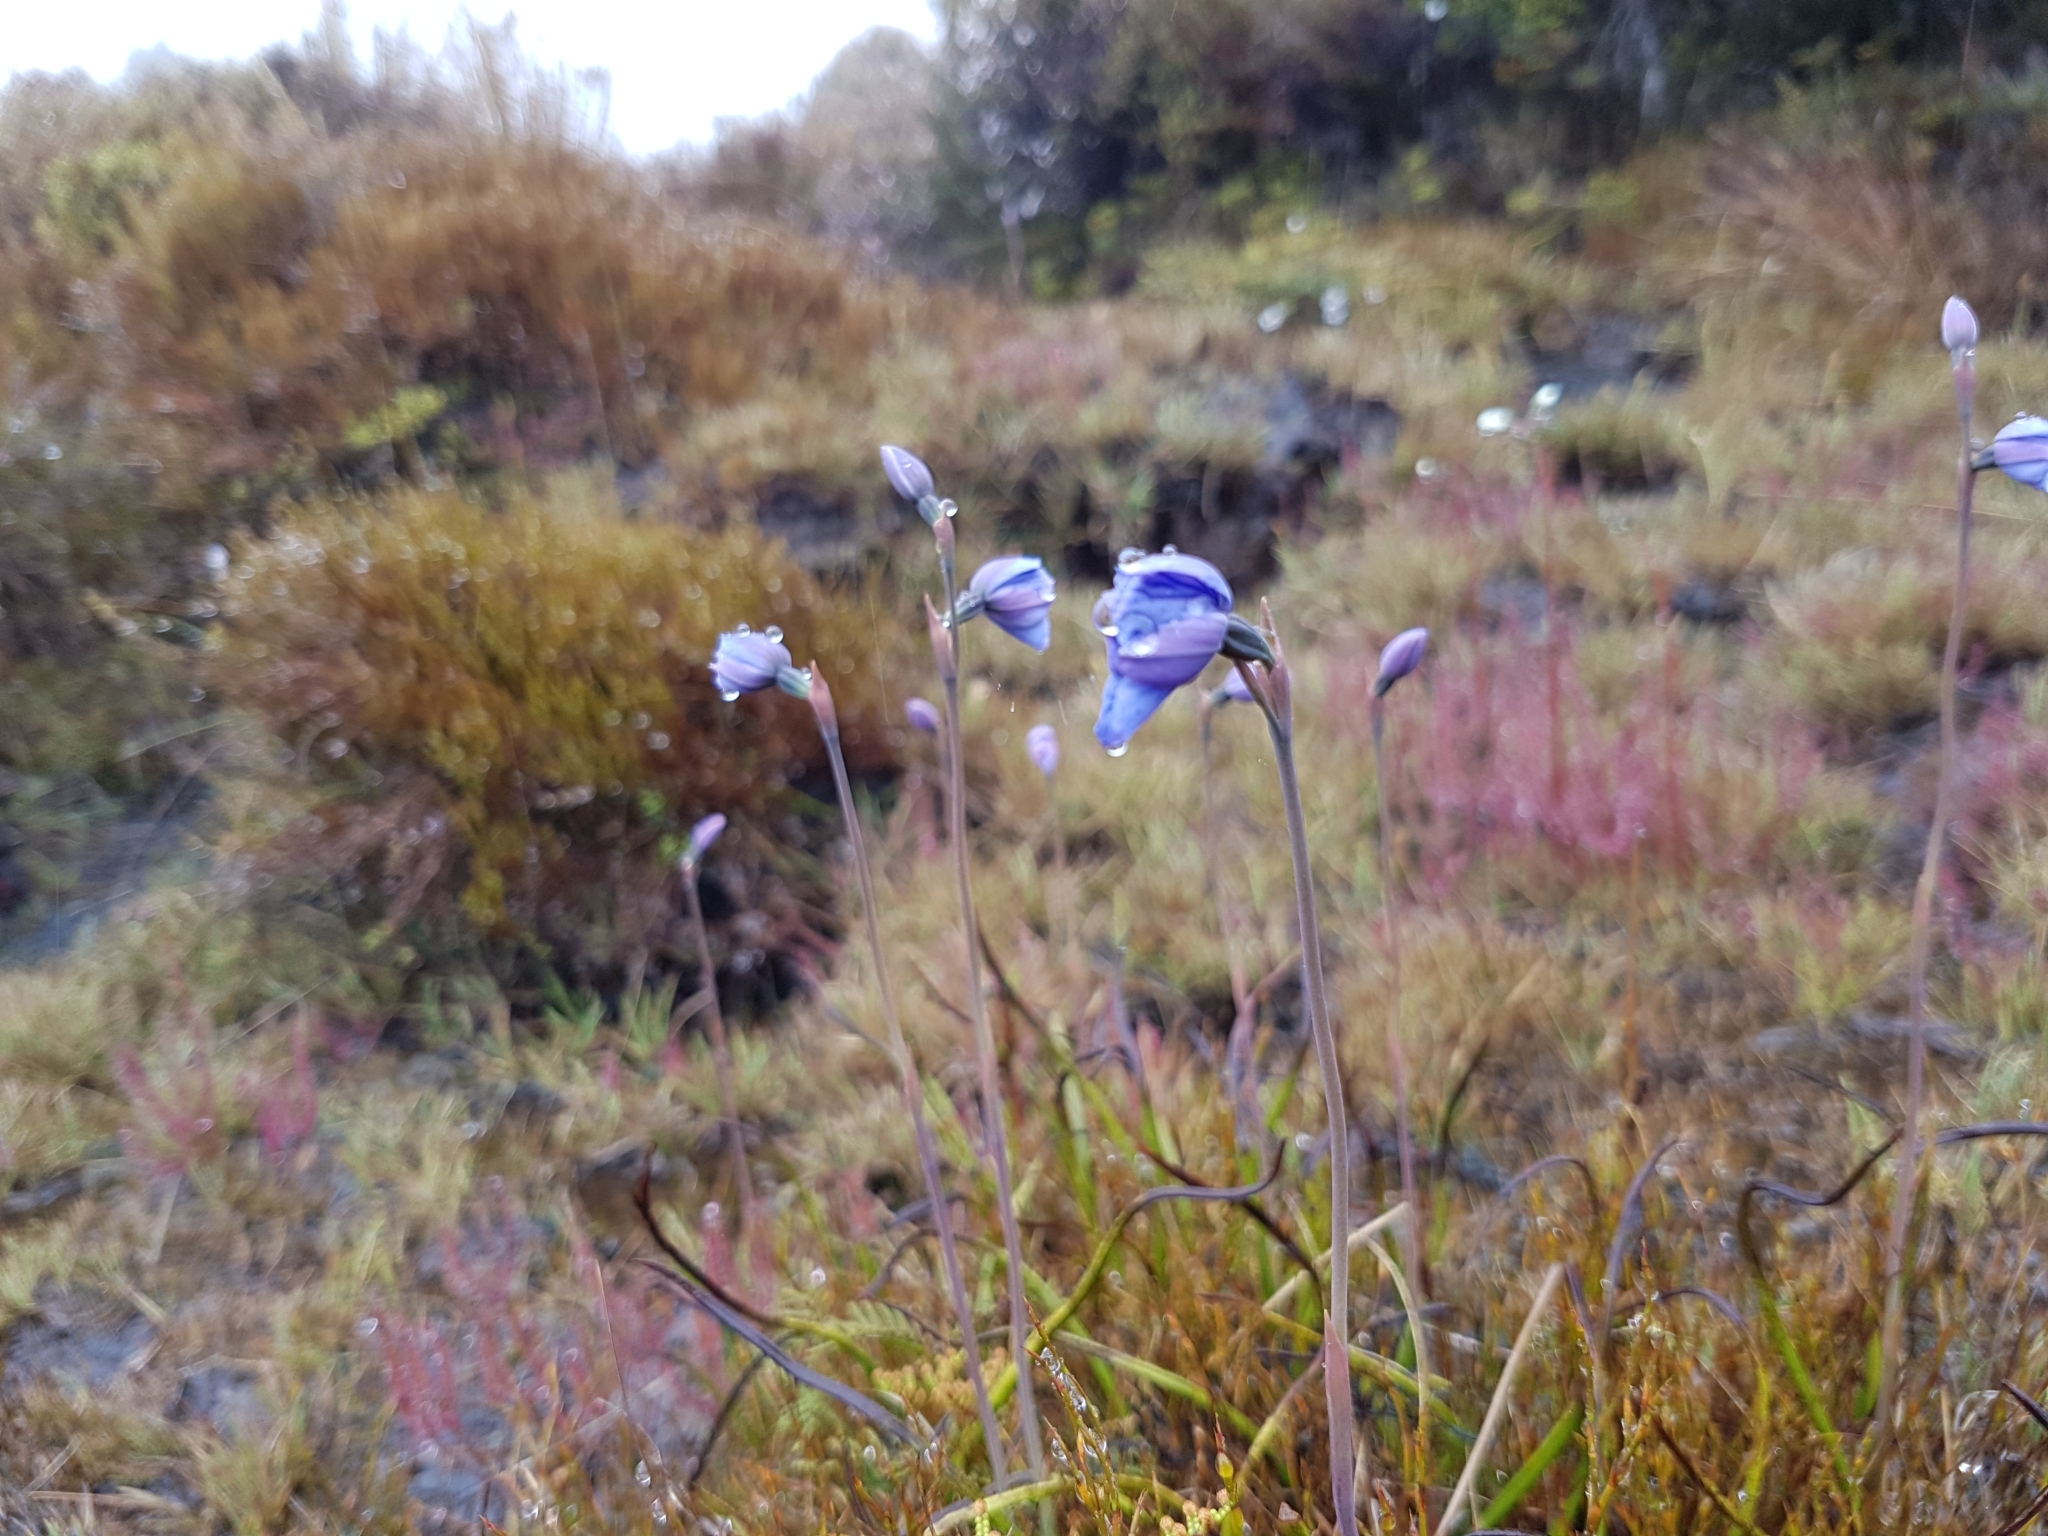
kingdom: Plantae
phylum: Tracheophyta
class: Liliopsida
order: Asparagales
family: Orchidaceae
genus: Thelymitra
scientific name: Thelymitra cyanea
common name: Blue sun-orchid
